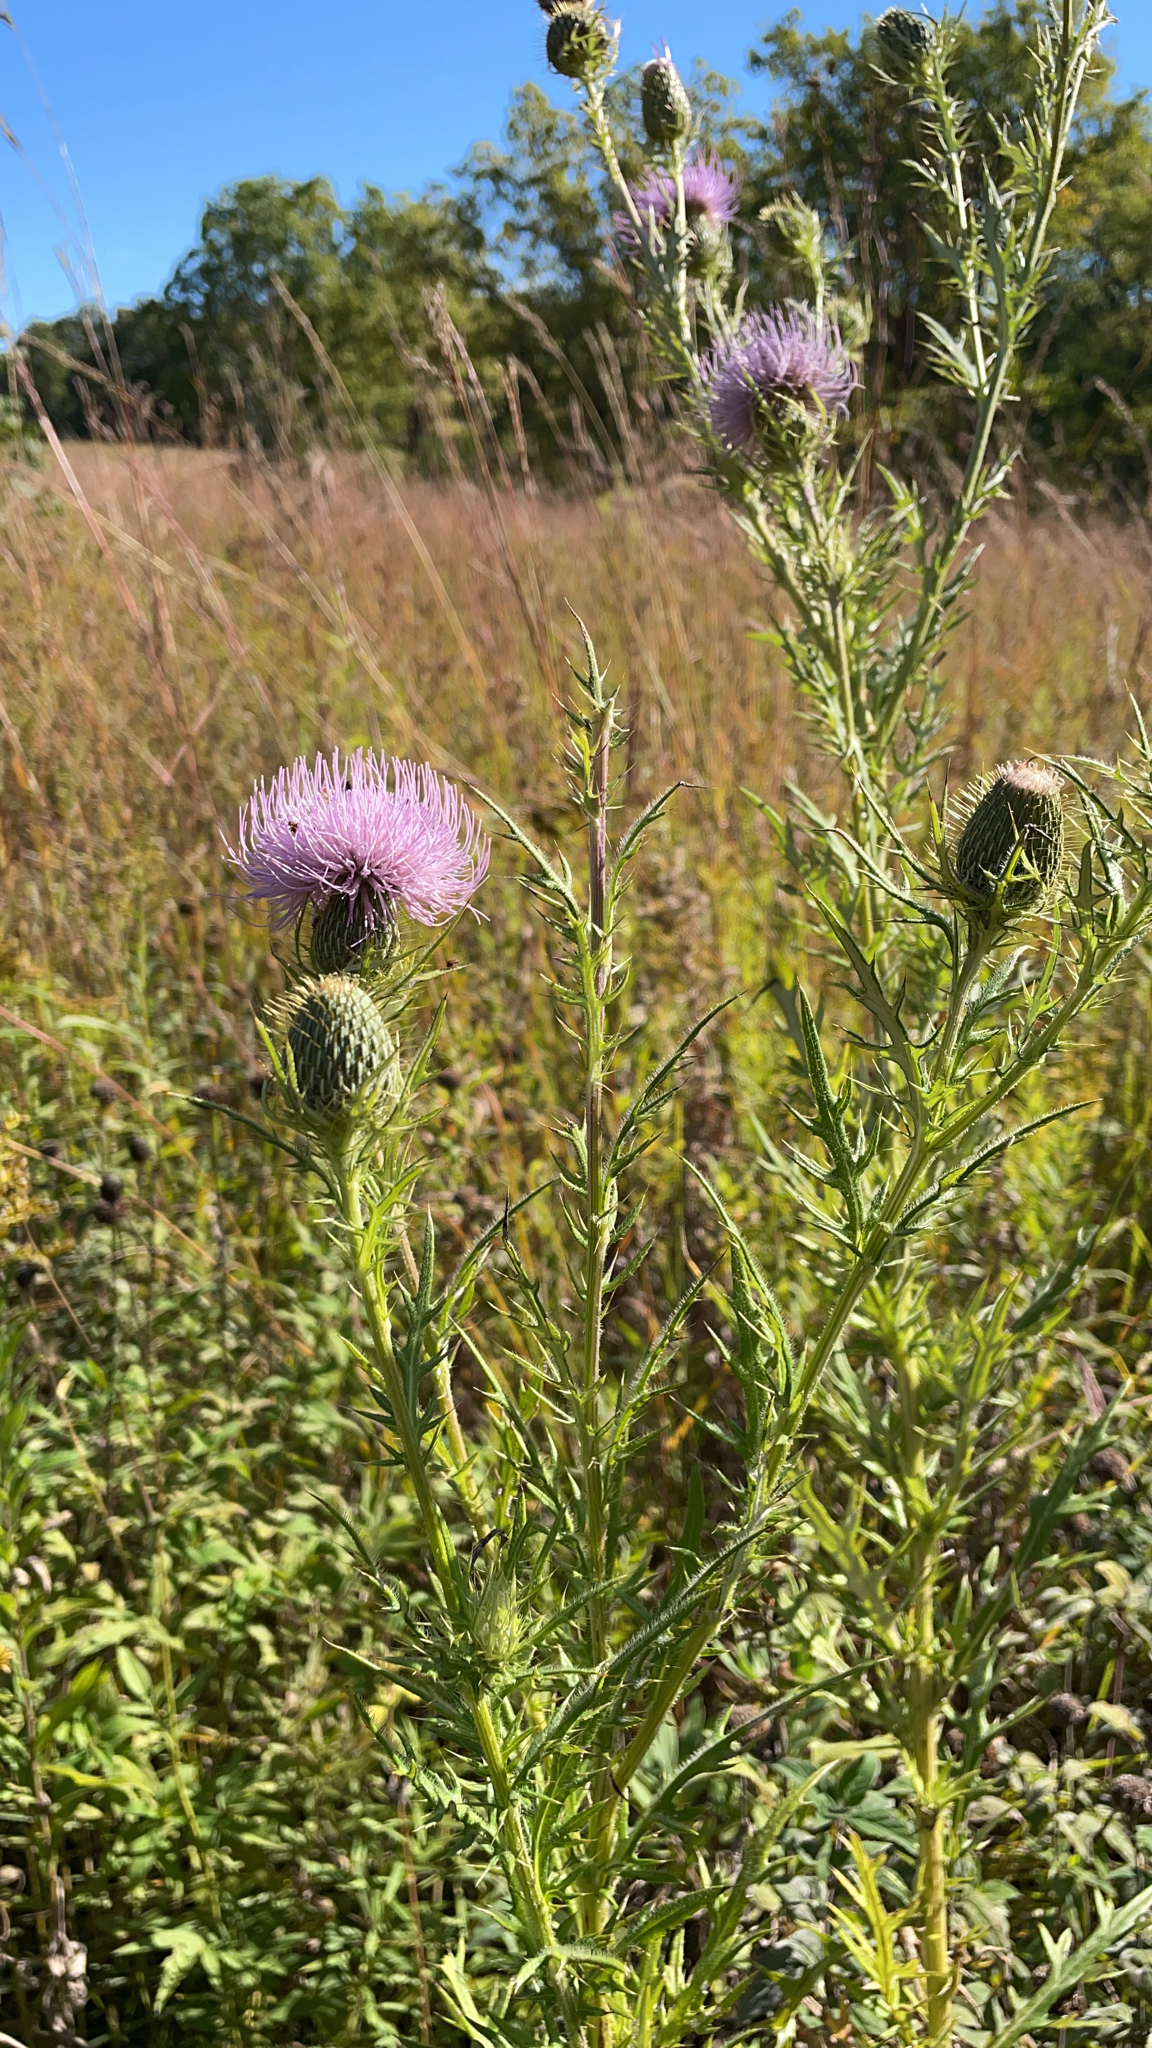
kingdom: Plantae
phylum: Tracheophyta
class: Magnoliopsida
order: Asterales
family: Asteraceae
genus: Cirsium
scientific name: Cirsium discolor
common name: Field thistle
